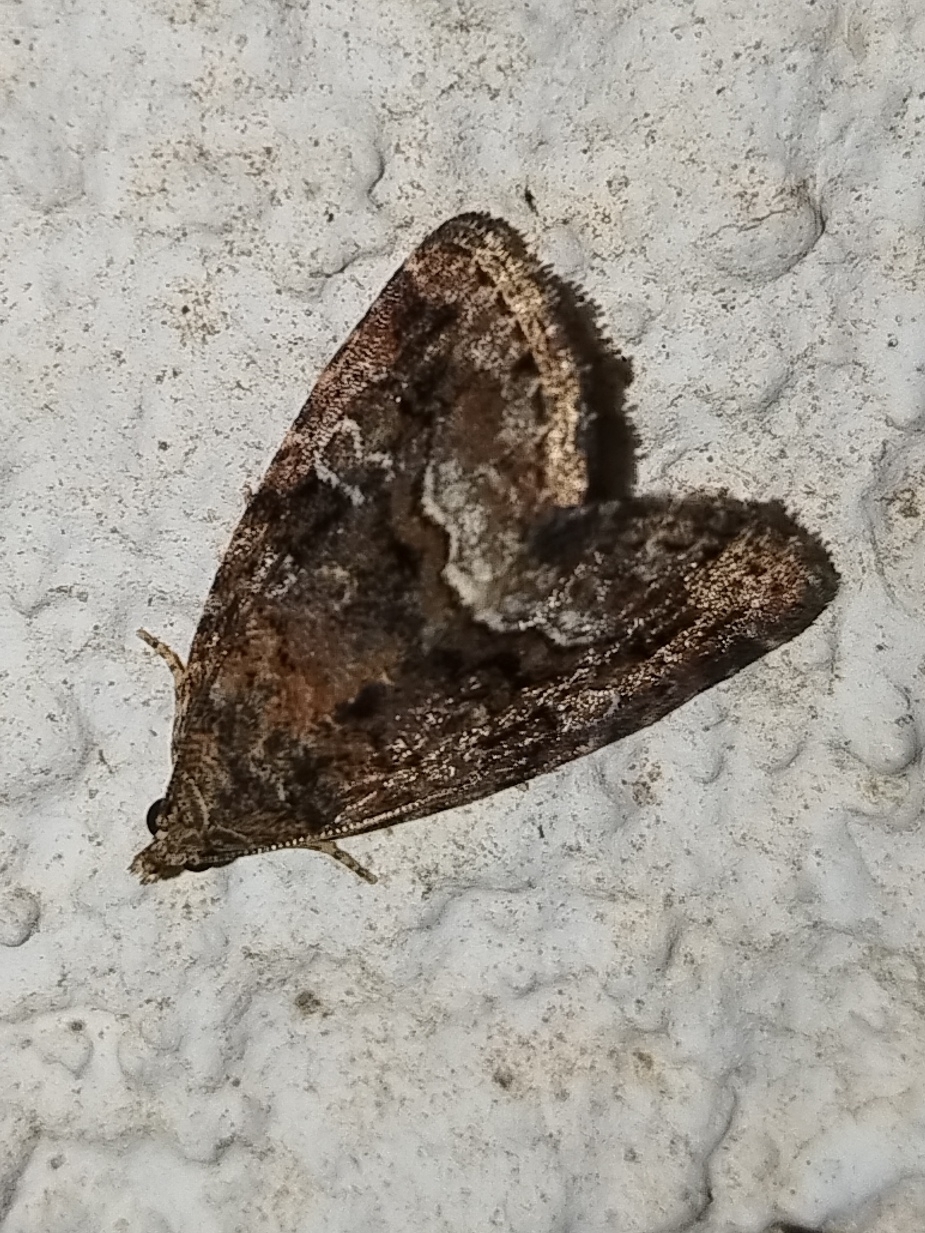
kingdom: Animalia
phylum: Arthropoda
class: Insecta
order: Lepidoptera
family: Noctuidae
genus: Deltote
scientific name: Deltote pygarga
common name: Marbled white spot
